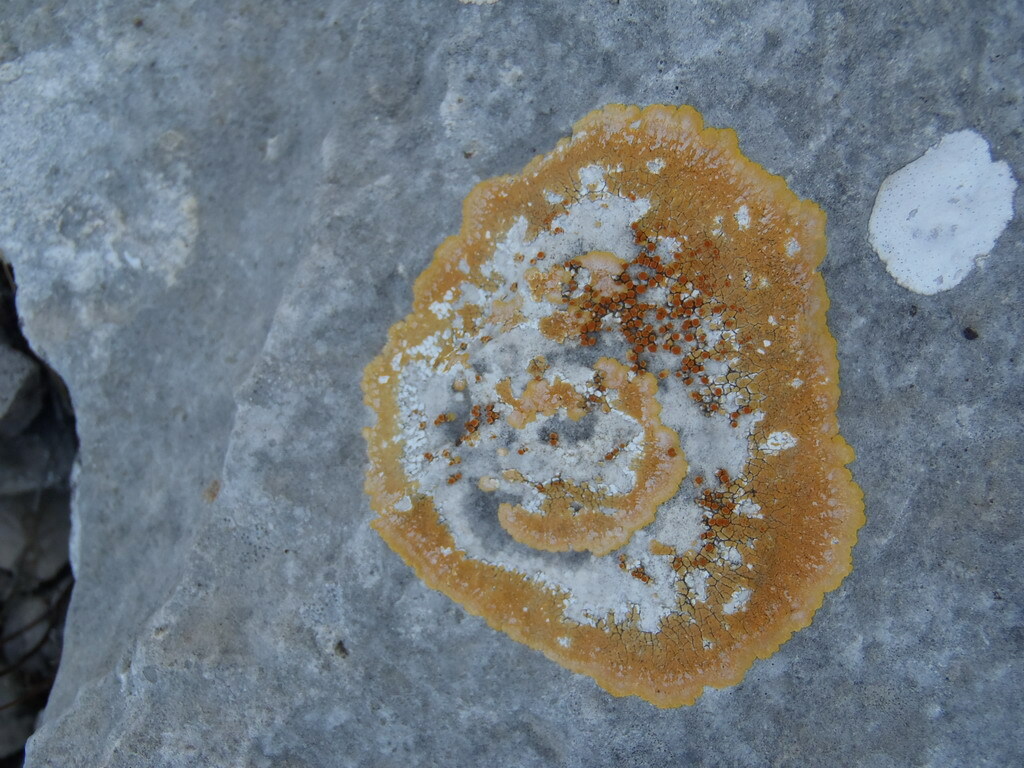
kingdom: Fungi
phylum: Ascomycota
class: Lecanoromycetes
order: Teloschistales
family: Teloschistaceae
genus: Caloplaca
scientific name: Caloplaca eugyra
